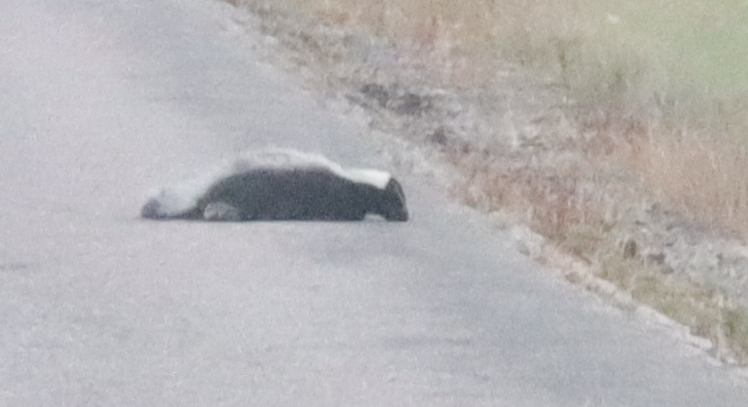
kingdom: Animalia
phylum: Chordata
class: Mammalia
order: Carnivora
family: Mephitidae
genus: Mephitis
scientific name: Mephitis mephitis
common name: Striped skunk
